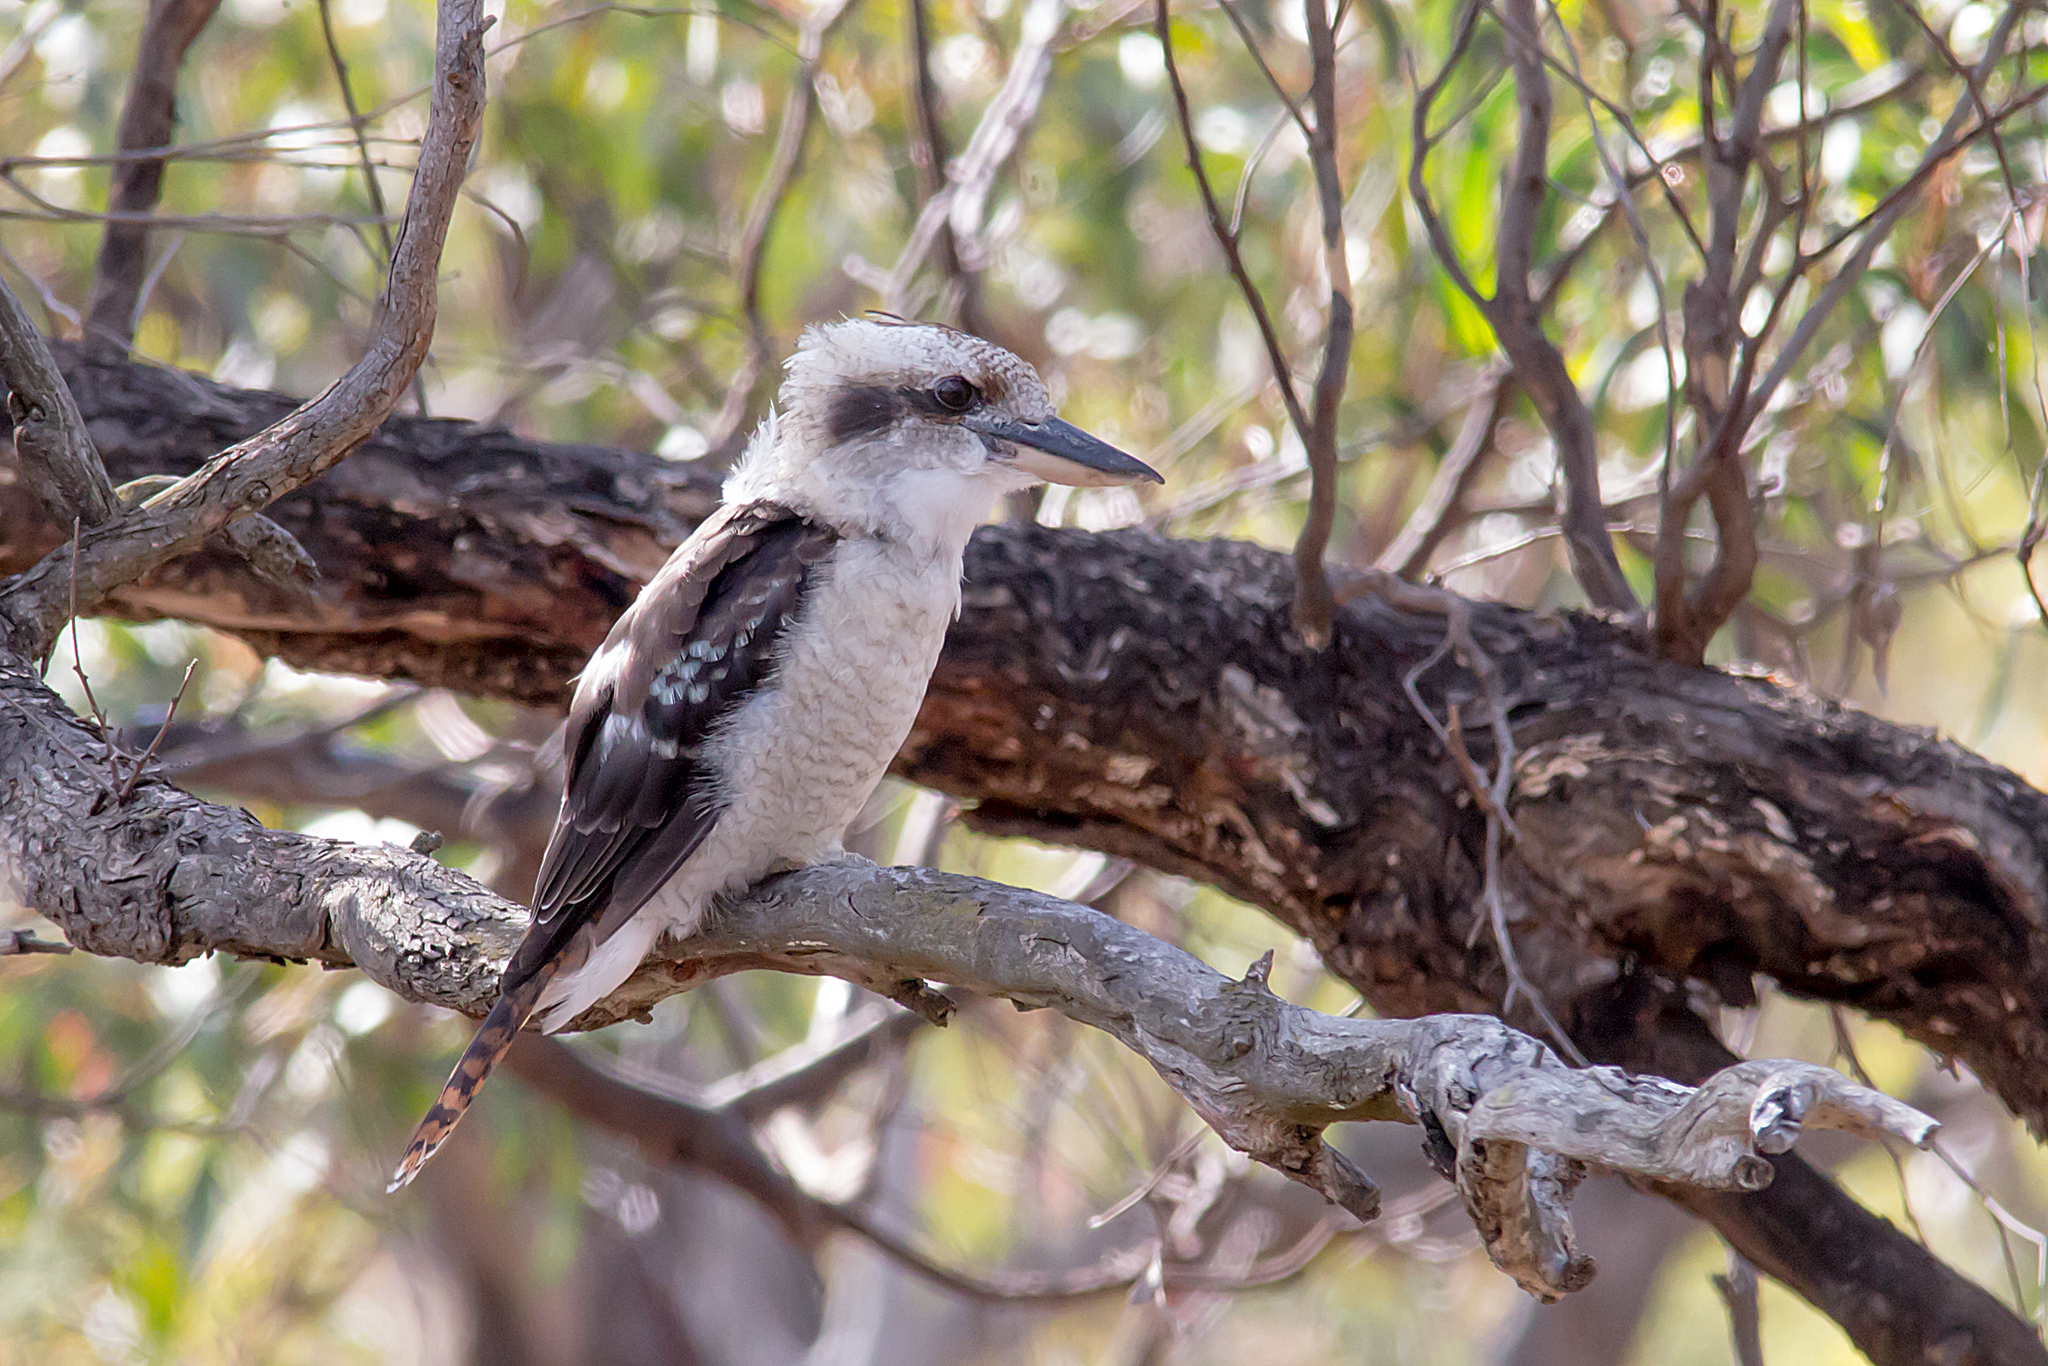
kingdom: Animalia
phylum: Chordata
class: Aves
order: Coraciiformes
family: Alcedinidae
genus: Dacelo
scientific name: Dacelo novaeguineae
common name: Laughing kookaburra
